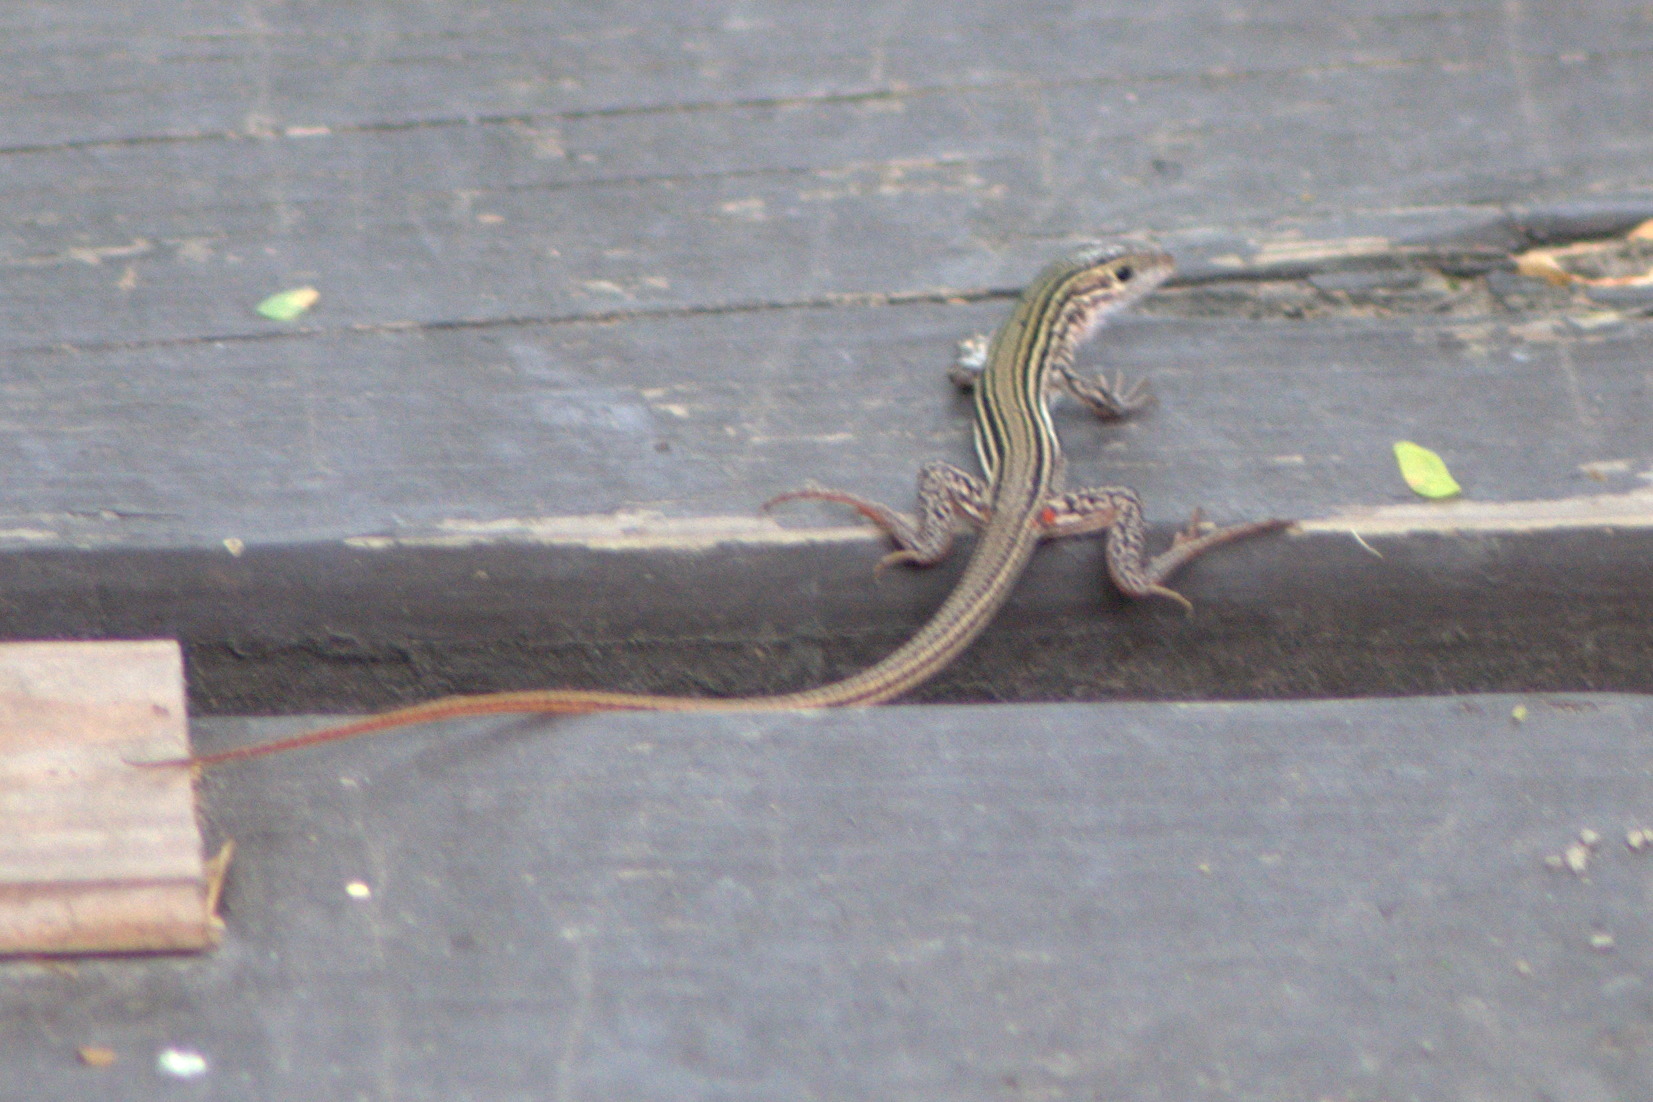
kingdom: Animalia
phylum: Chordata
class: Squamata
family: Teiidae
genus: Aspidoscelis
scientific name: Aspidoscelis gularis
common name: Eastern spotted whiptail
